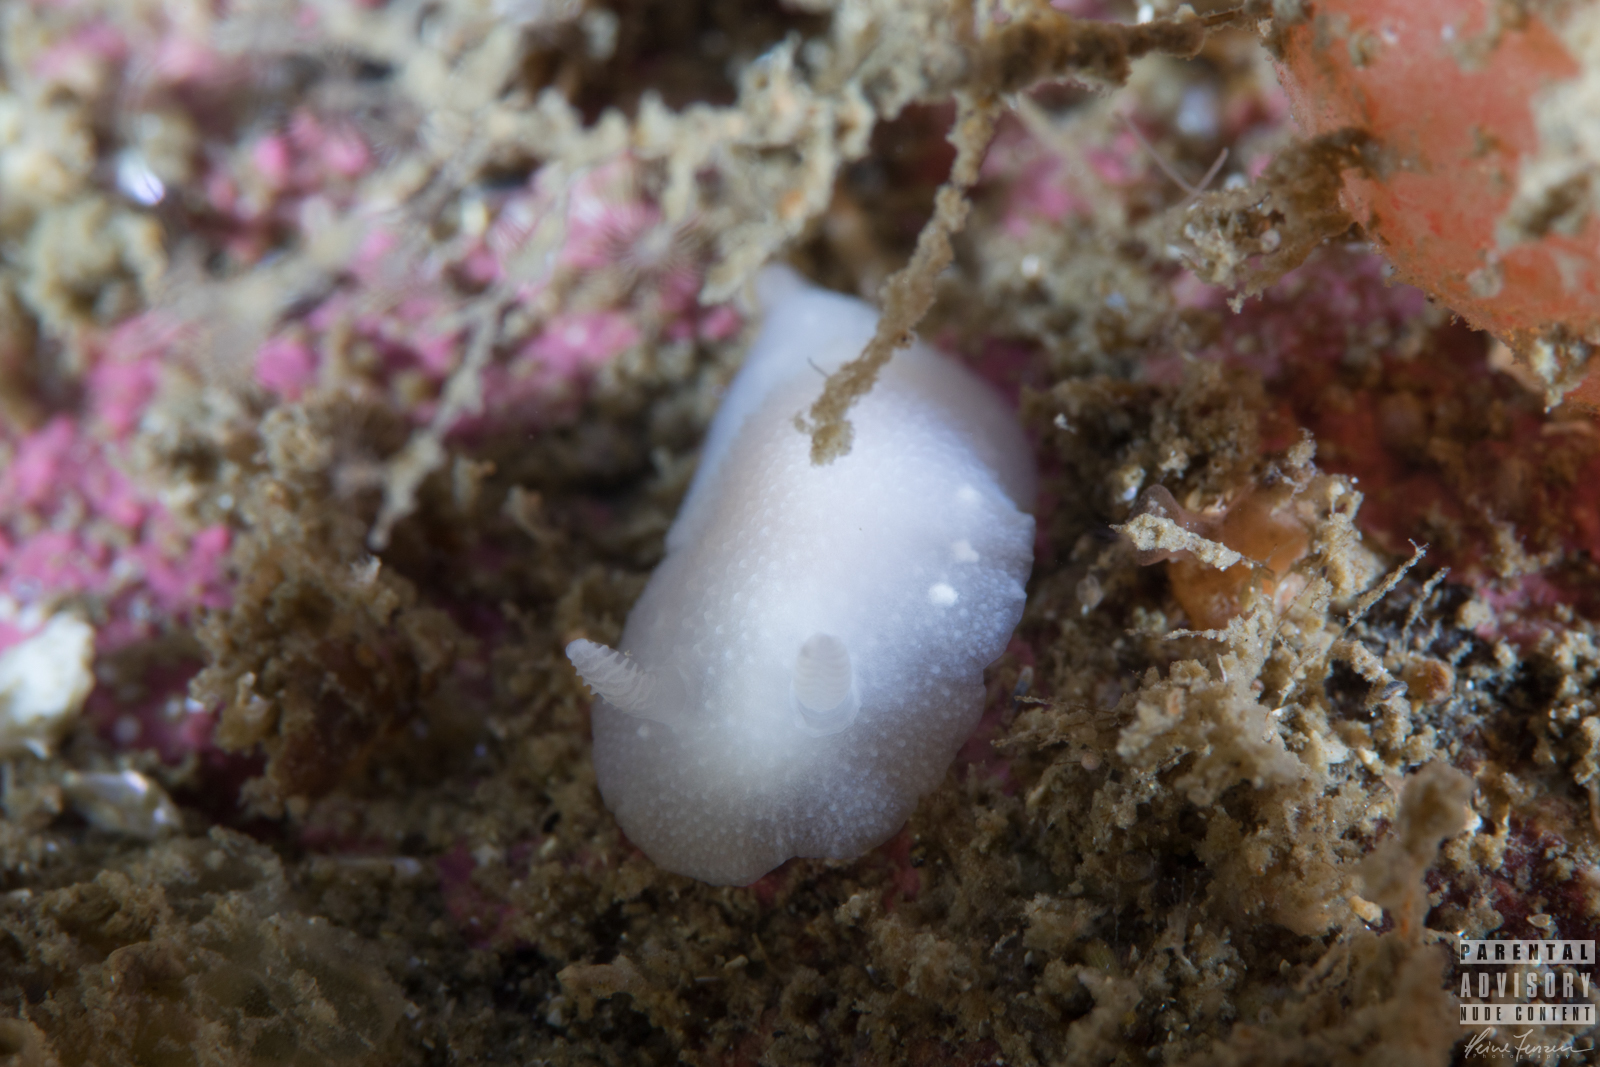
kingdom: Animalia
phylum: Mollusca
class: Gastropoda
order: Nudibranchia
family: Cadlinidae
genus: Cadlina
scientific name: Cadlina laevis
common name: White atlantic cadlina
